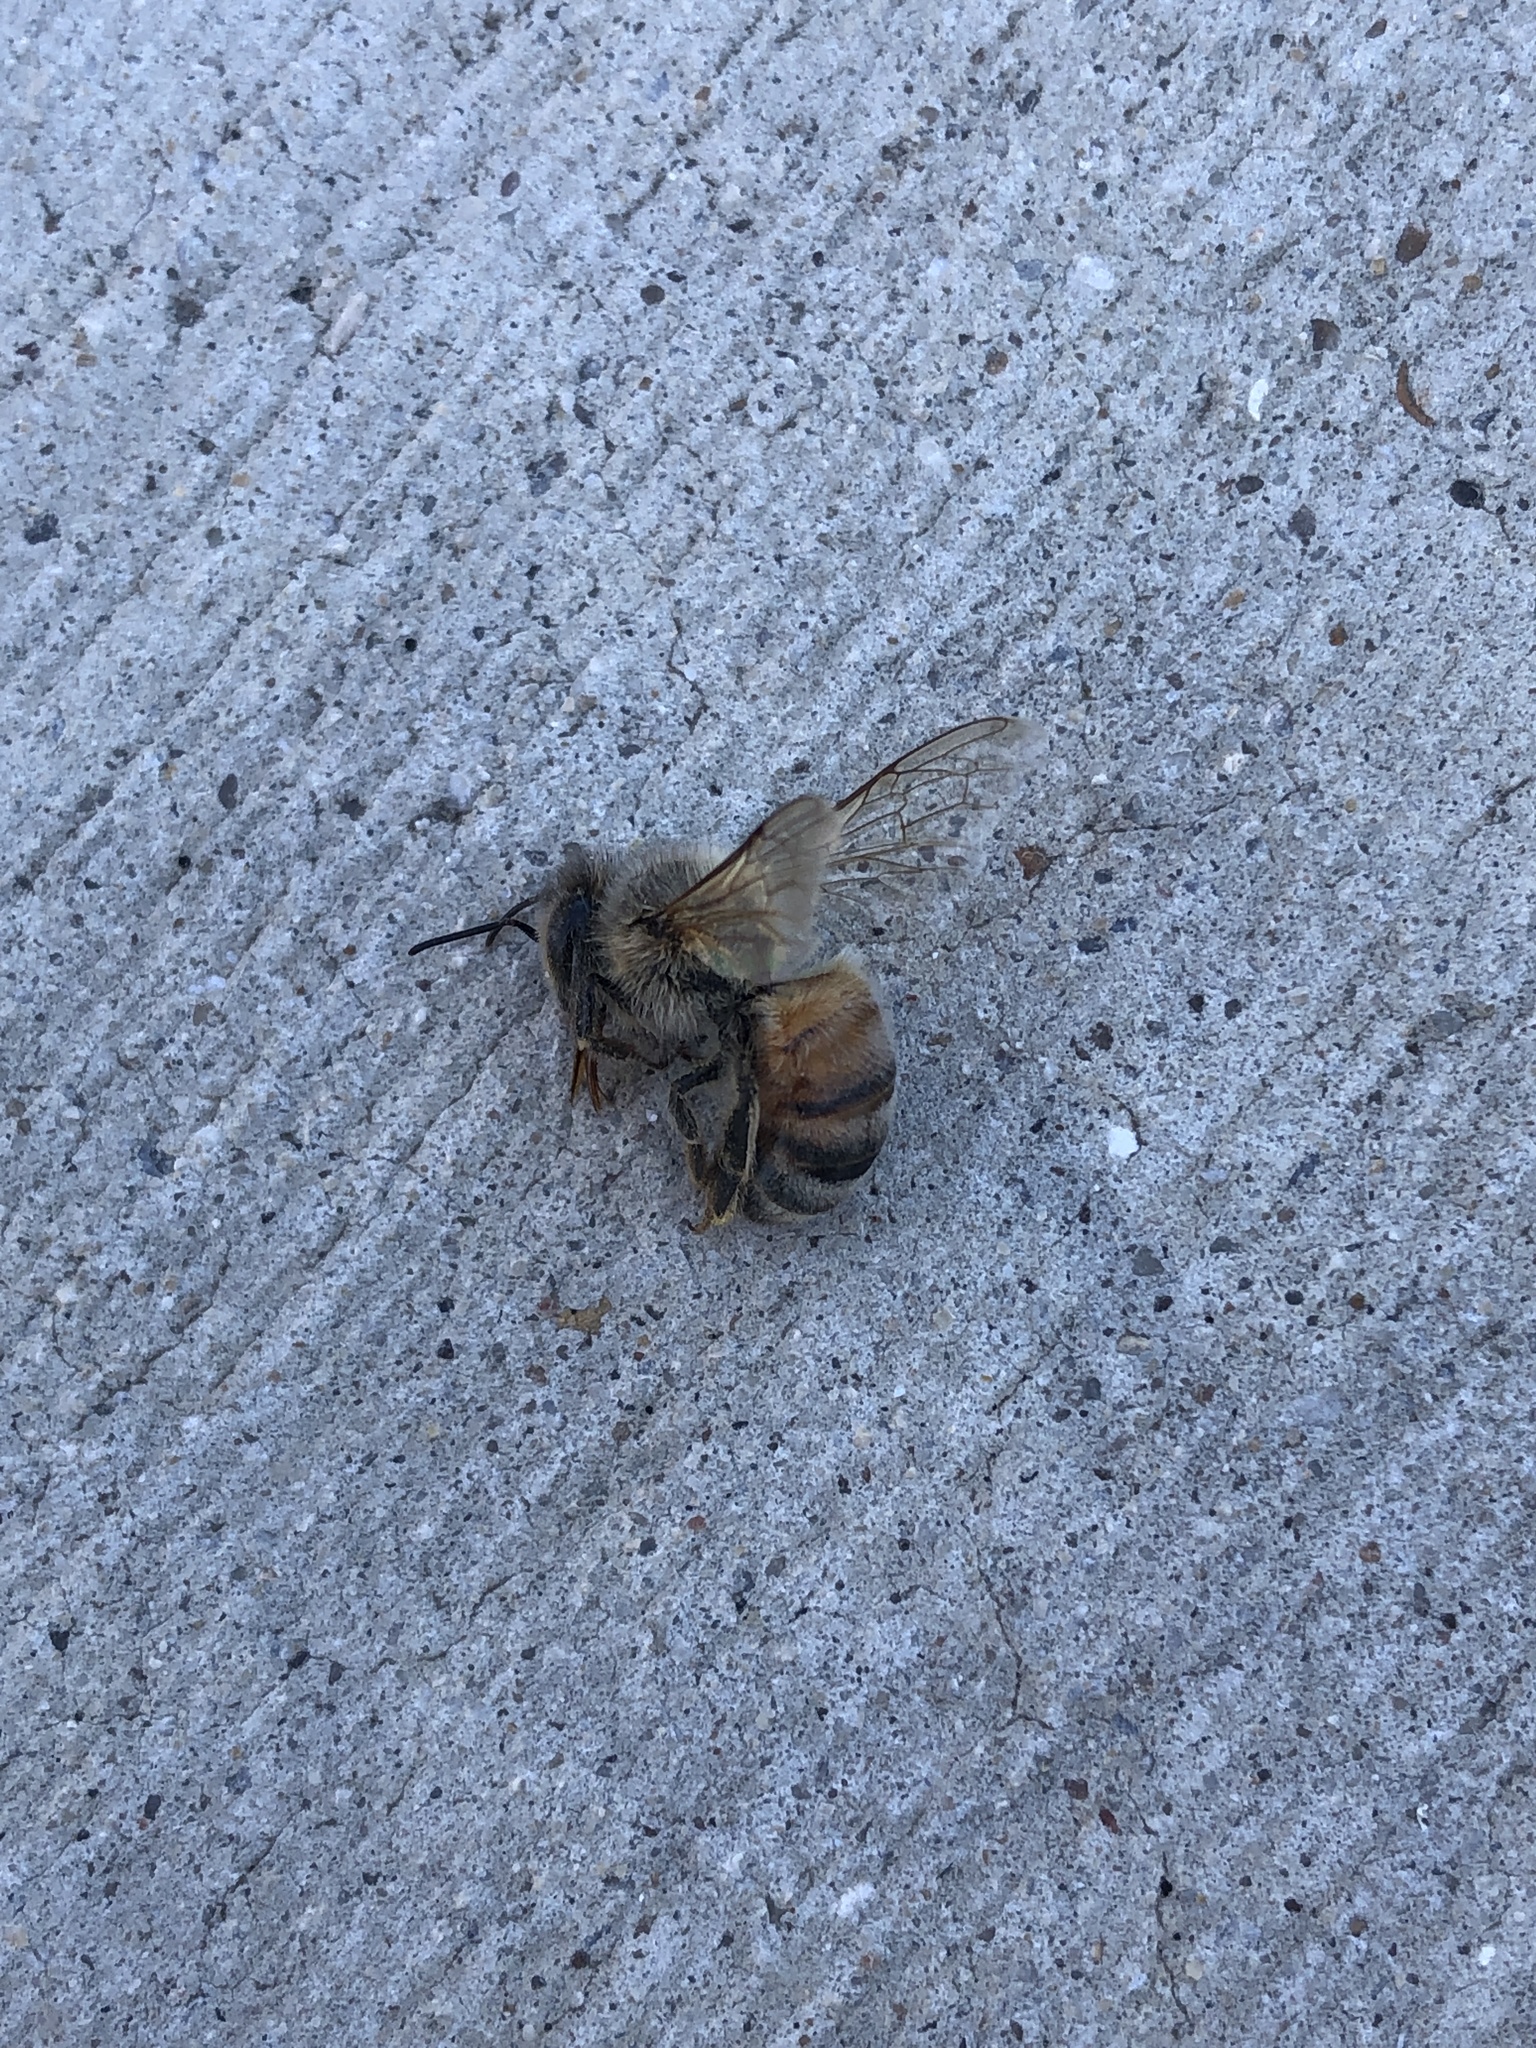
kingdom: Animalia
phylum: Arthropoda
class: Insecta
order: Hymenoptera
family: Apidae
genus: Apis
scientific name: Apis mellifera
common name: Honey bee
